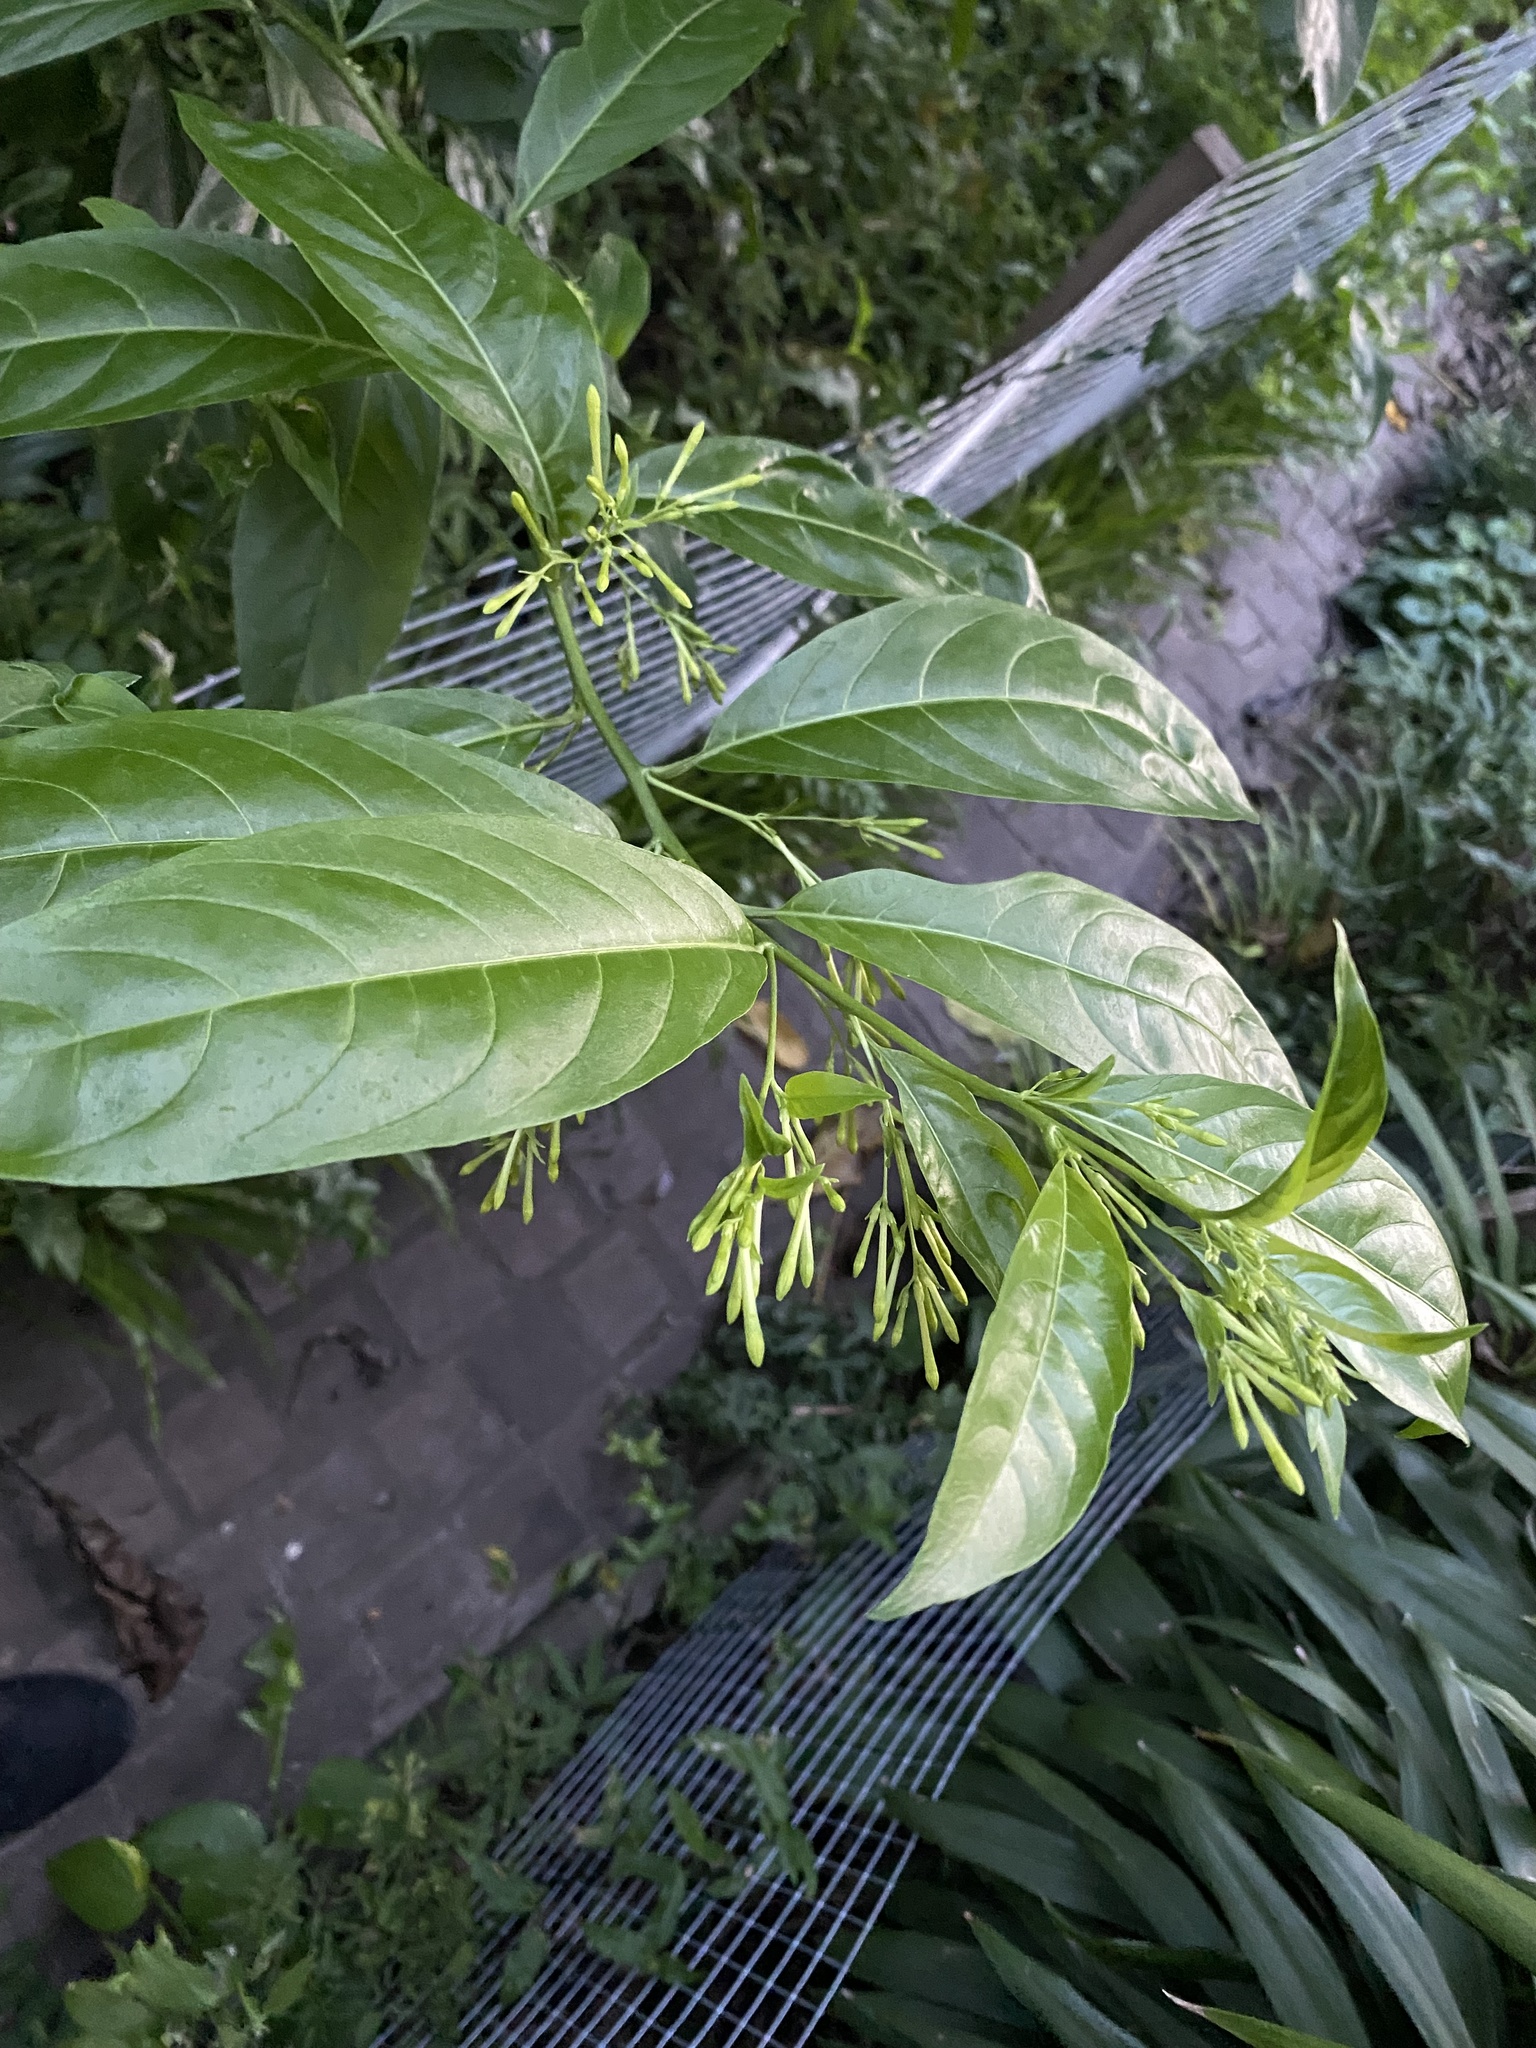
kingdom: Plantae
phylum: Tracheophyta
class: Magnoliopsida
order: Solanales
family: Solanaceae
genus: Cestrum
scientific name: Cestrum nocturnum
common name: Night jessamine
